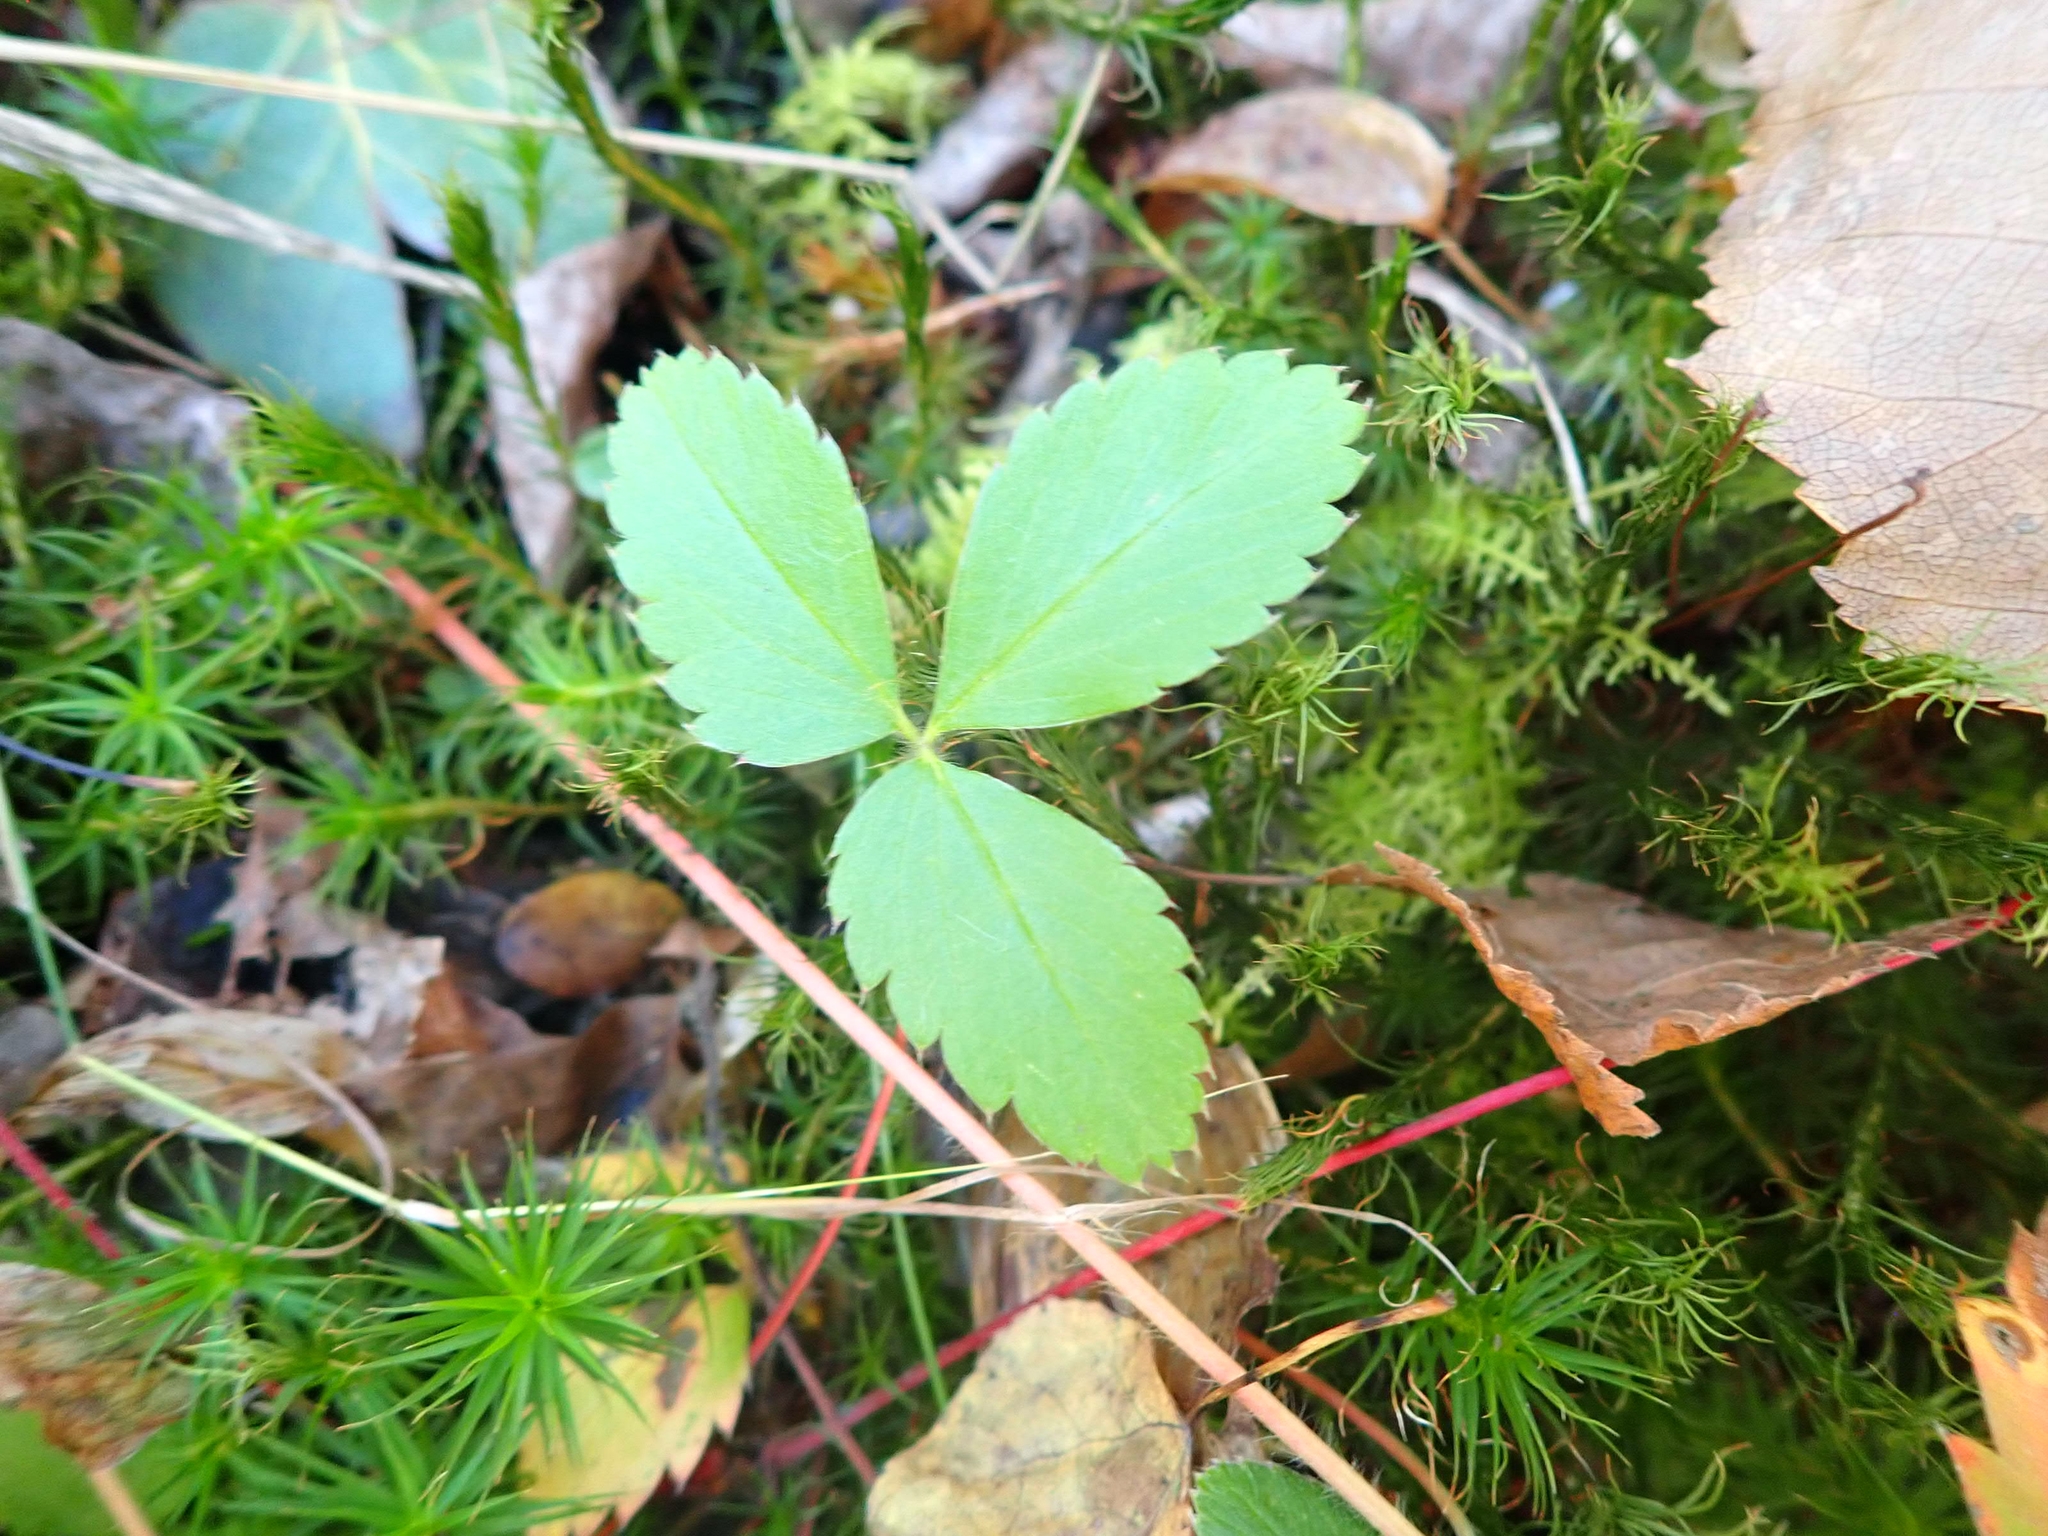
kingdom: Plantae
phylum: Tracheophyta
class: Magnoliopsida
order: Rosales
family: Rosaceae
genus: Fragaria
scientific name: Fragaria virginiana
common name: Thickleaved wild strawberry
